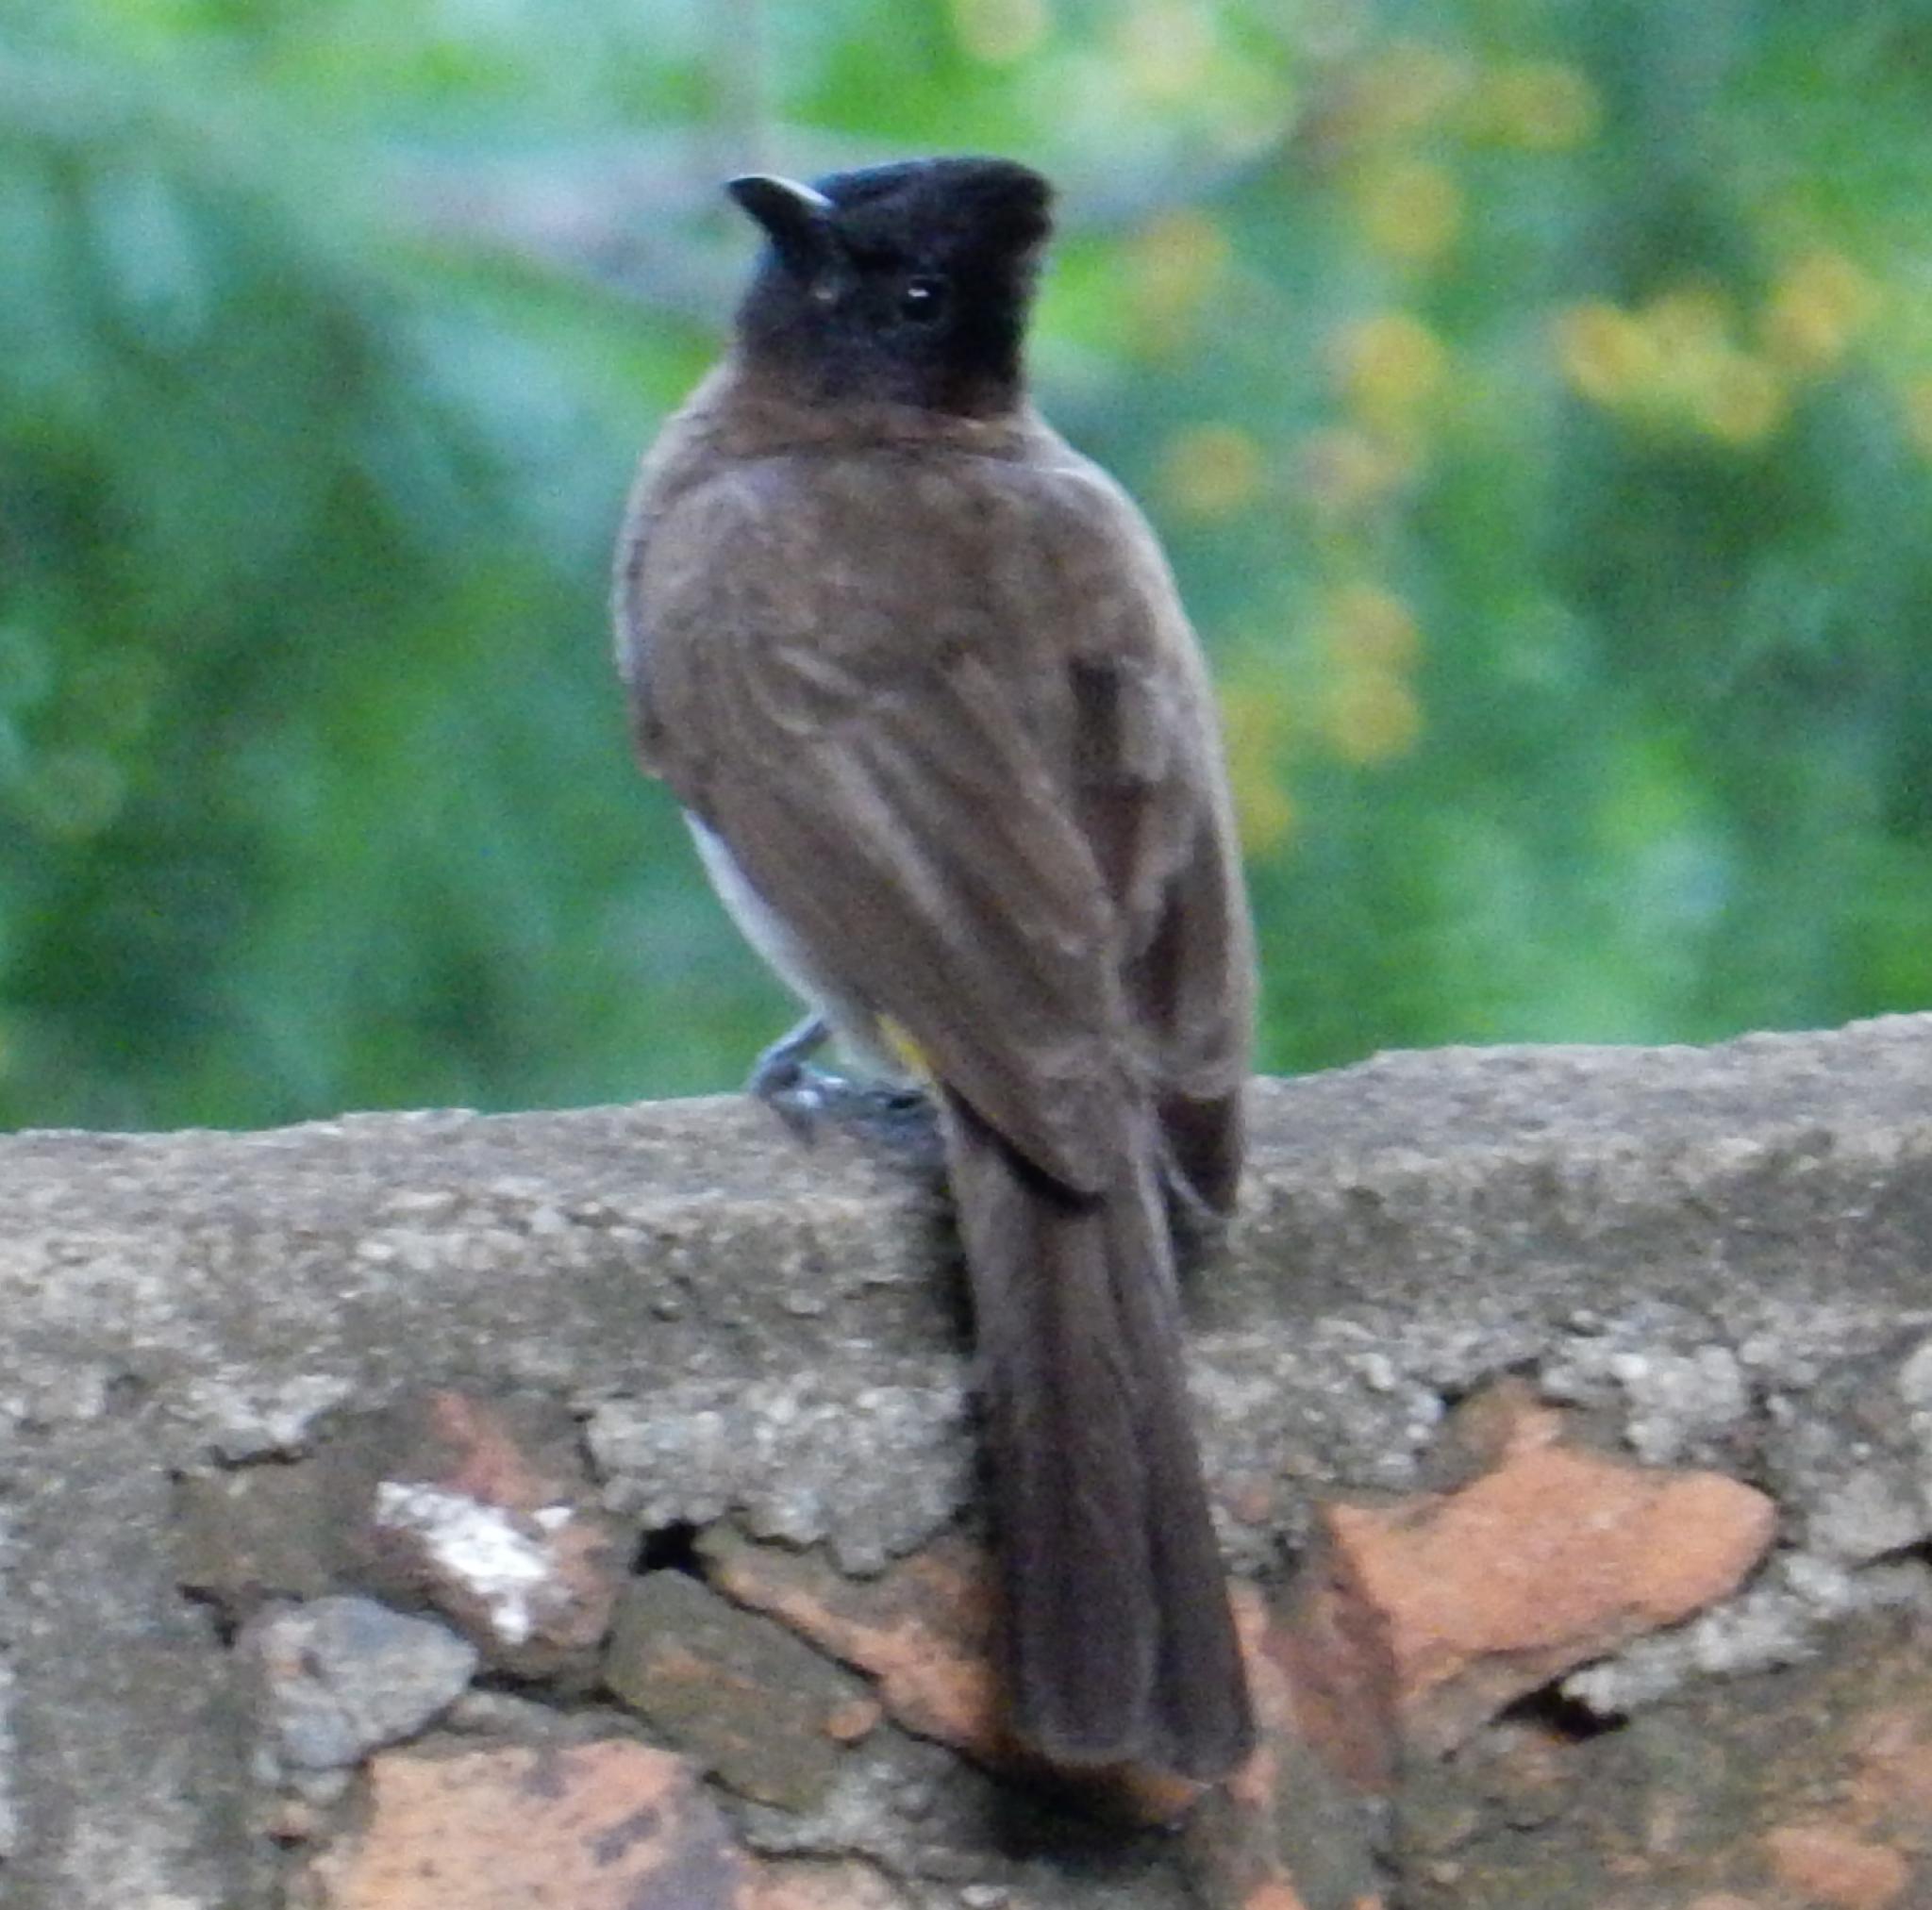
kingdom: Animalia
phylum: Chordata
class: Aves
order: Passeriformes
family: Pycnonotidae
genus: Pycnonotus
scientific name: Pycnonotus barbatus
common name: Common bulbul
